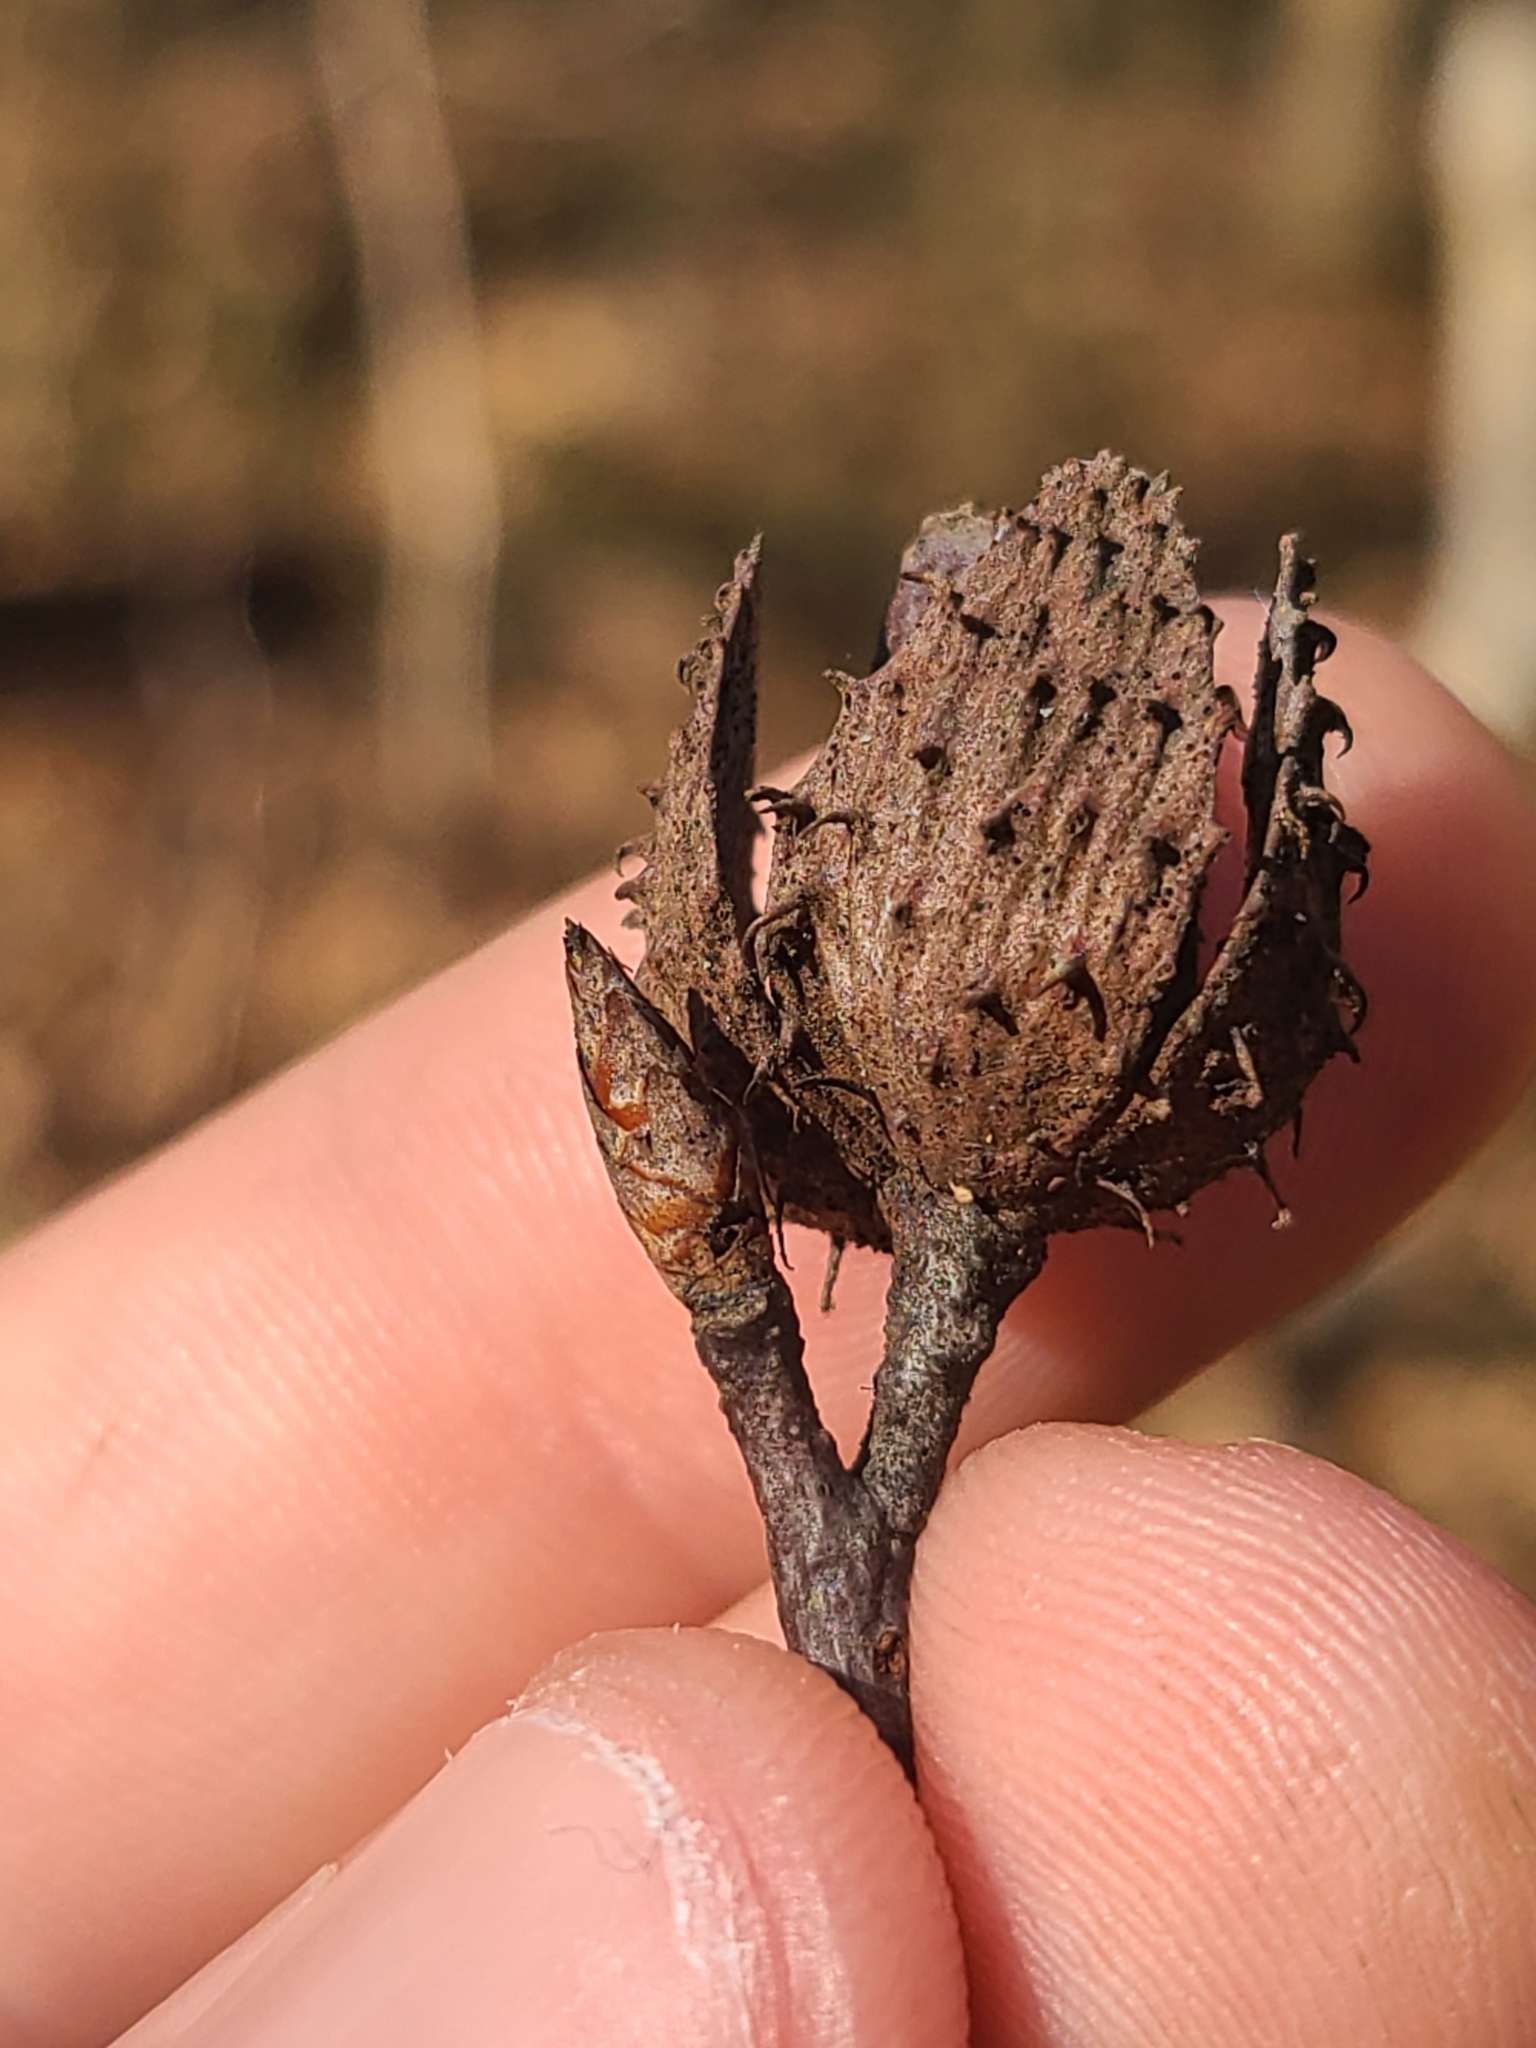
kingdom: Plantae
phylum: Tracheophyta
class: Magnoliopsida
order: Fagales
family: Fagaceae
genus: Fagus
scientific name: Fagus grandifolia
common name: American beech
